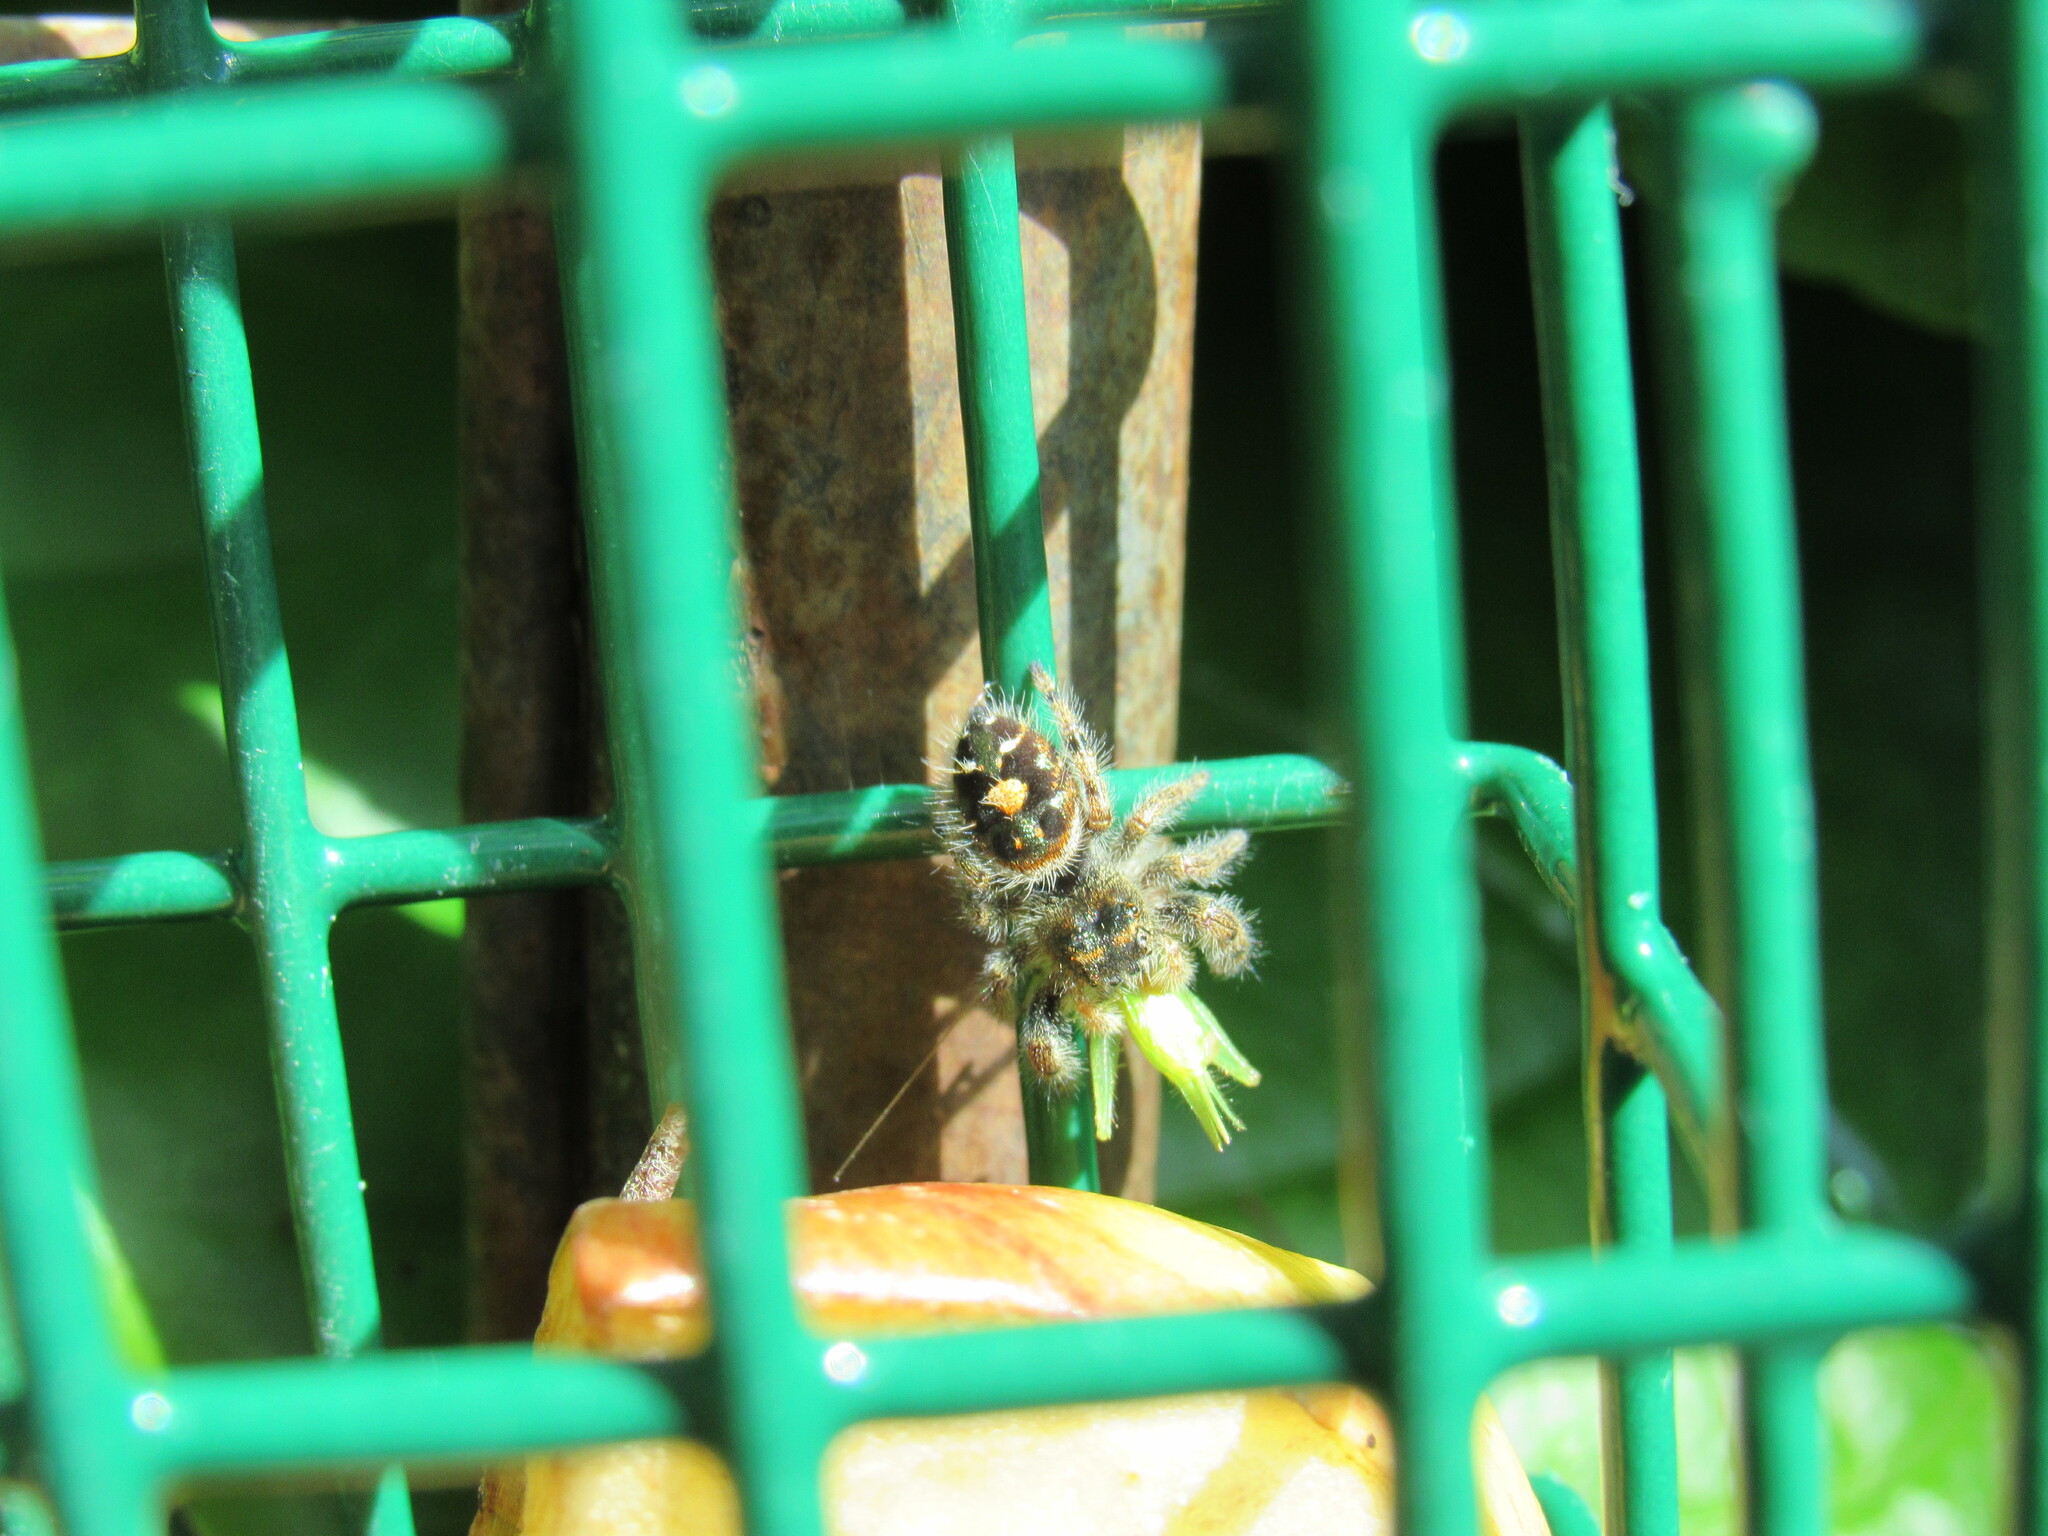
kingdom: Animalia
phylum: Arthropoda
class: Arachnida
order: Araneae
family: Salticidae
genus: Phidippus
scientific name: Phidippus audax
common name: Bold jumper
